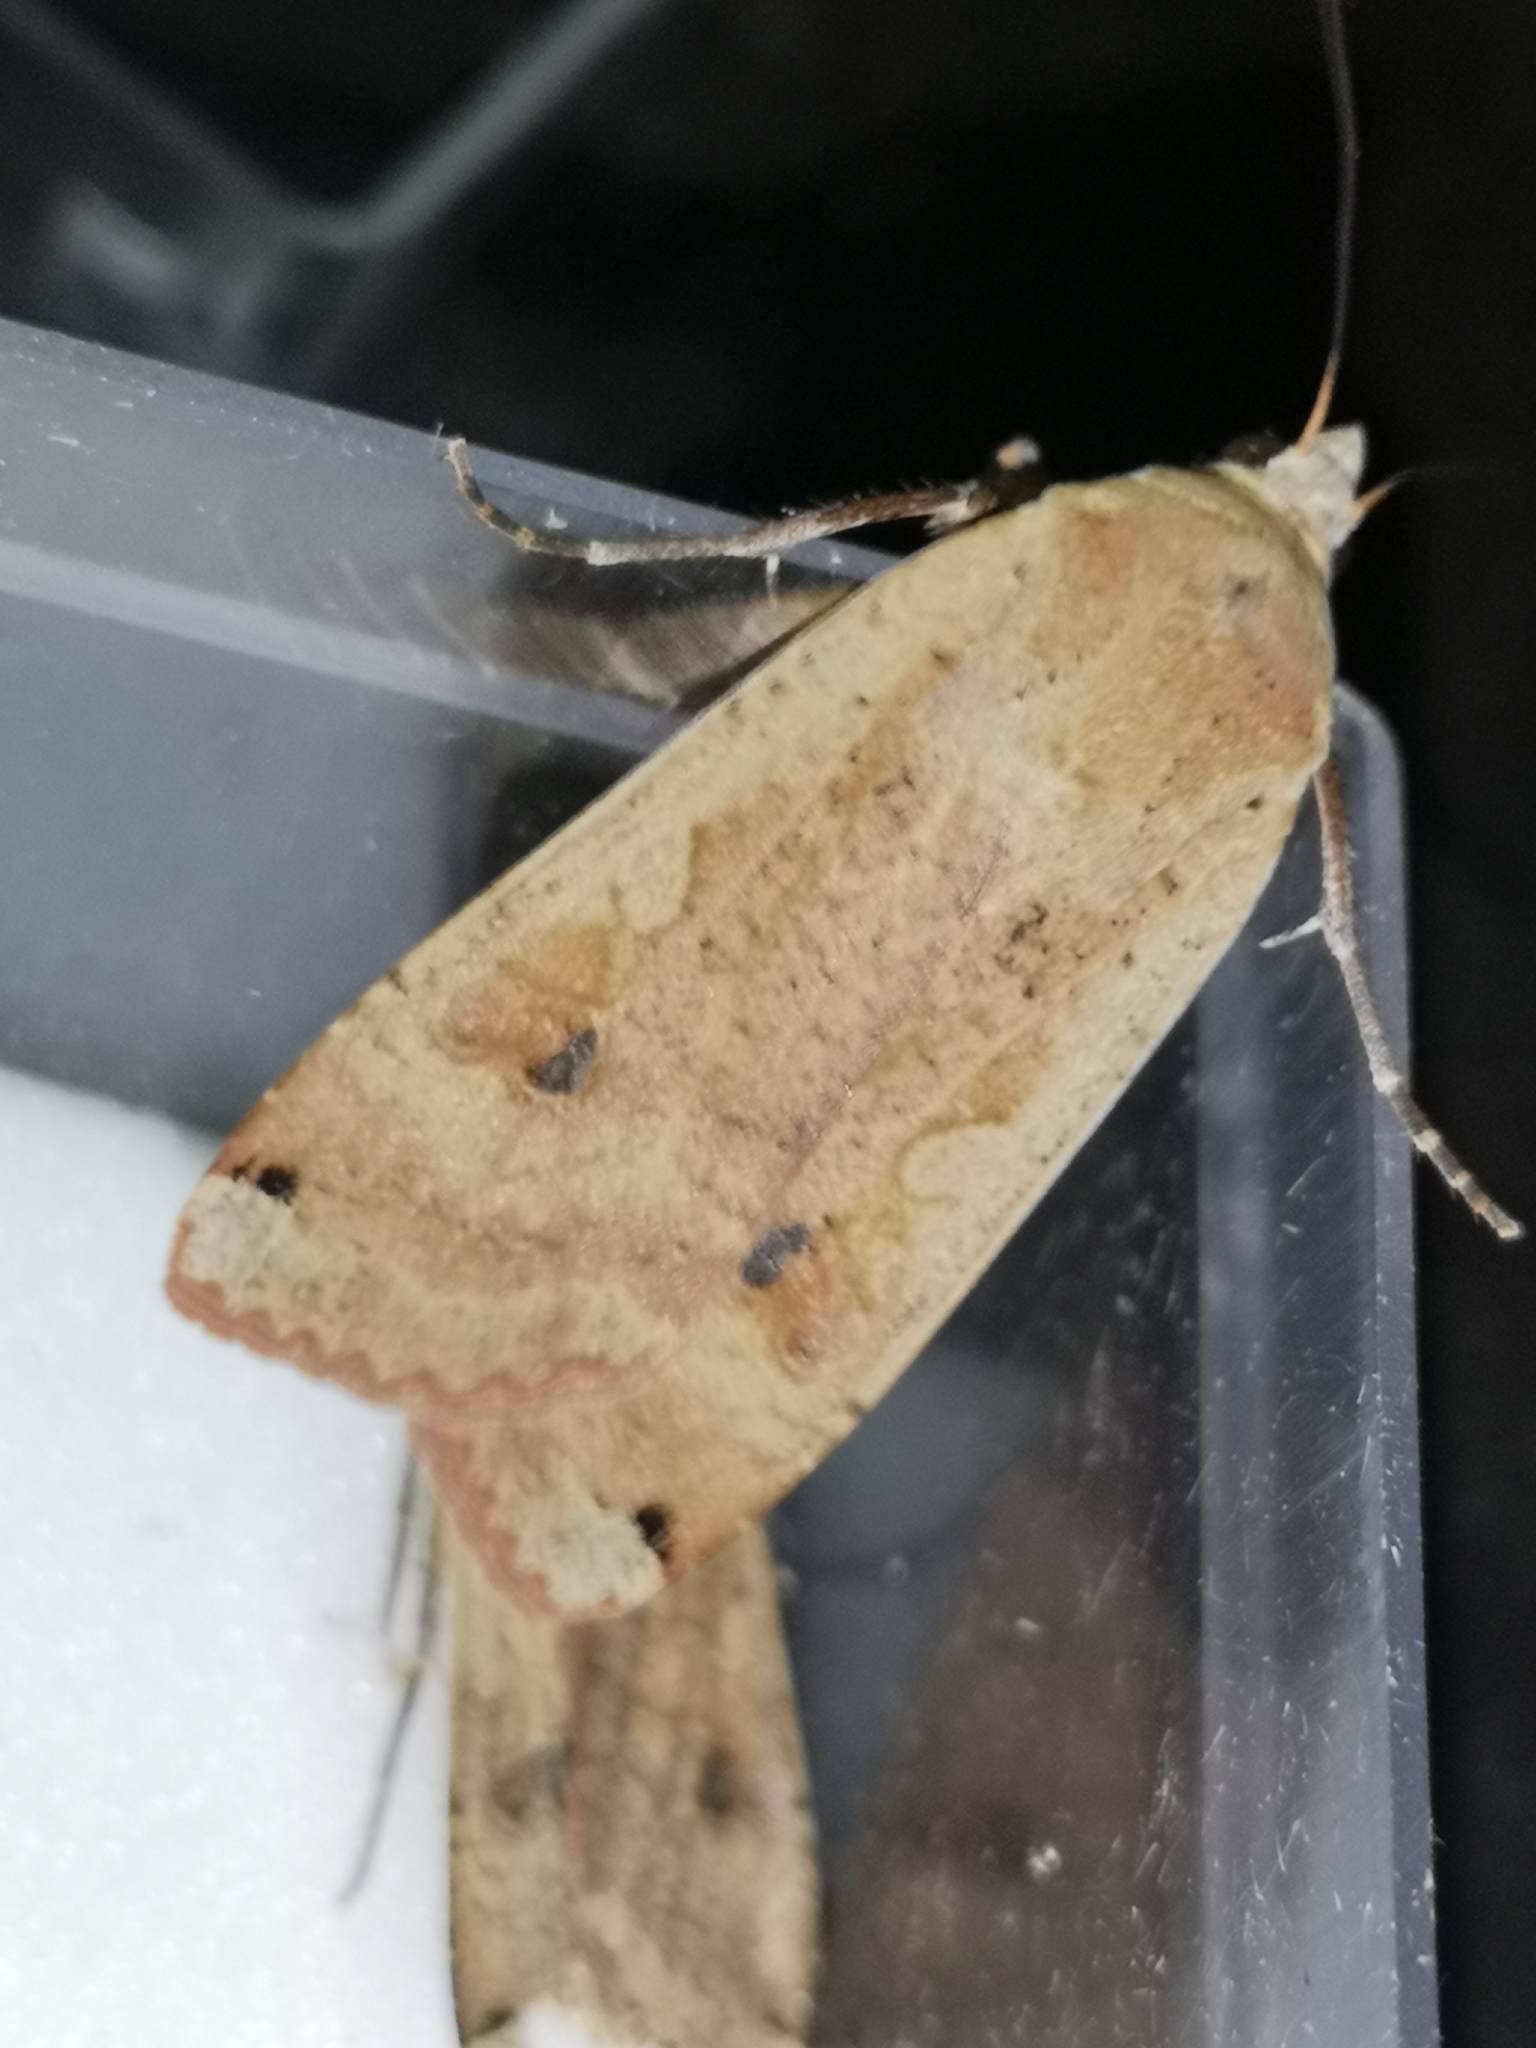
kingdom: Animalia
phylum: Arthropoda
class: Insecta
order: Lepidoptera
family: Noctuidae
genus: Noctua
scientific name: Noctua pronuba
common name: Large yellow underwing
